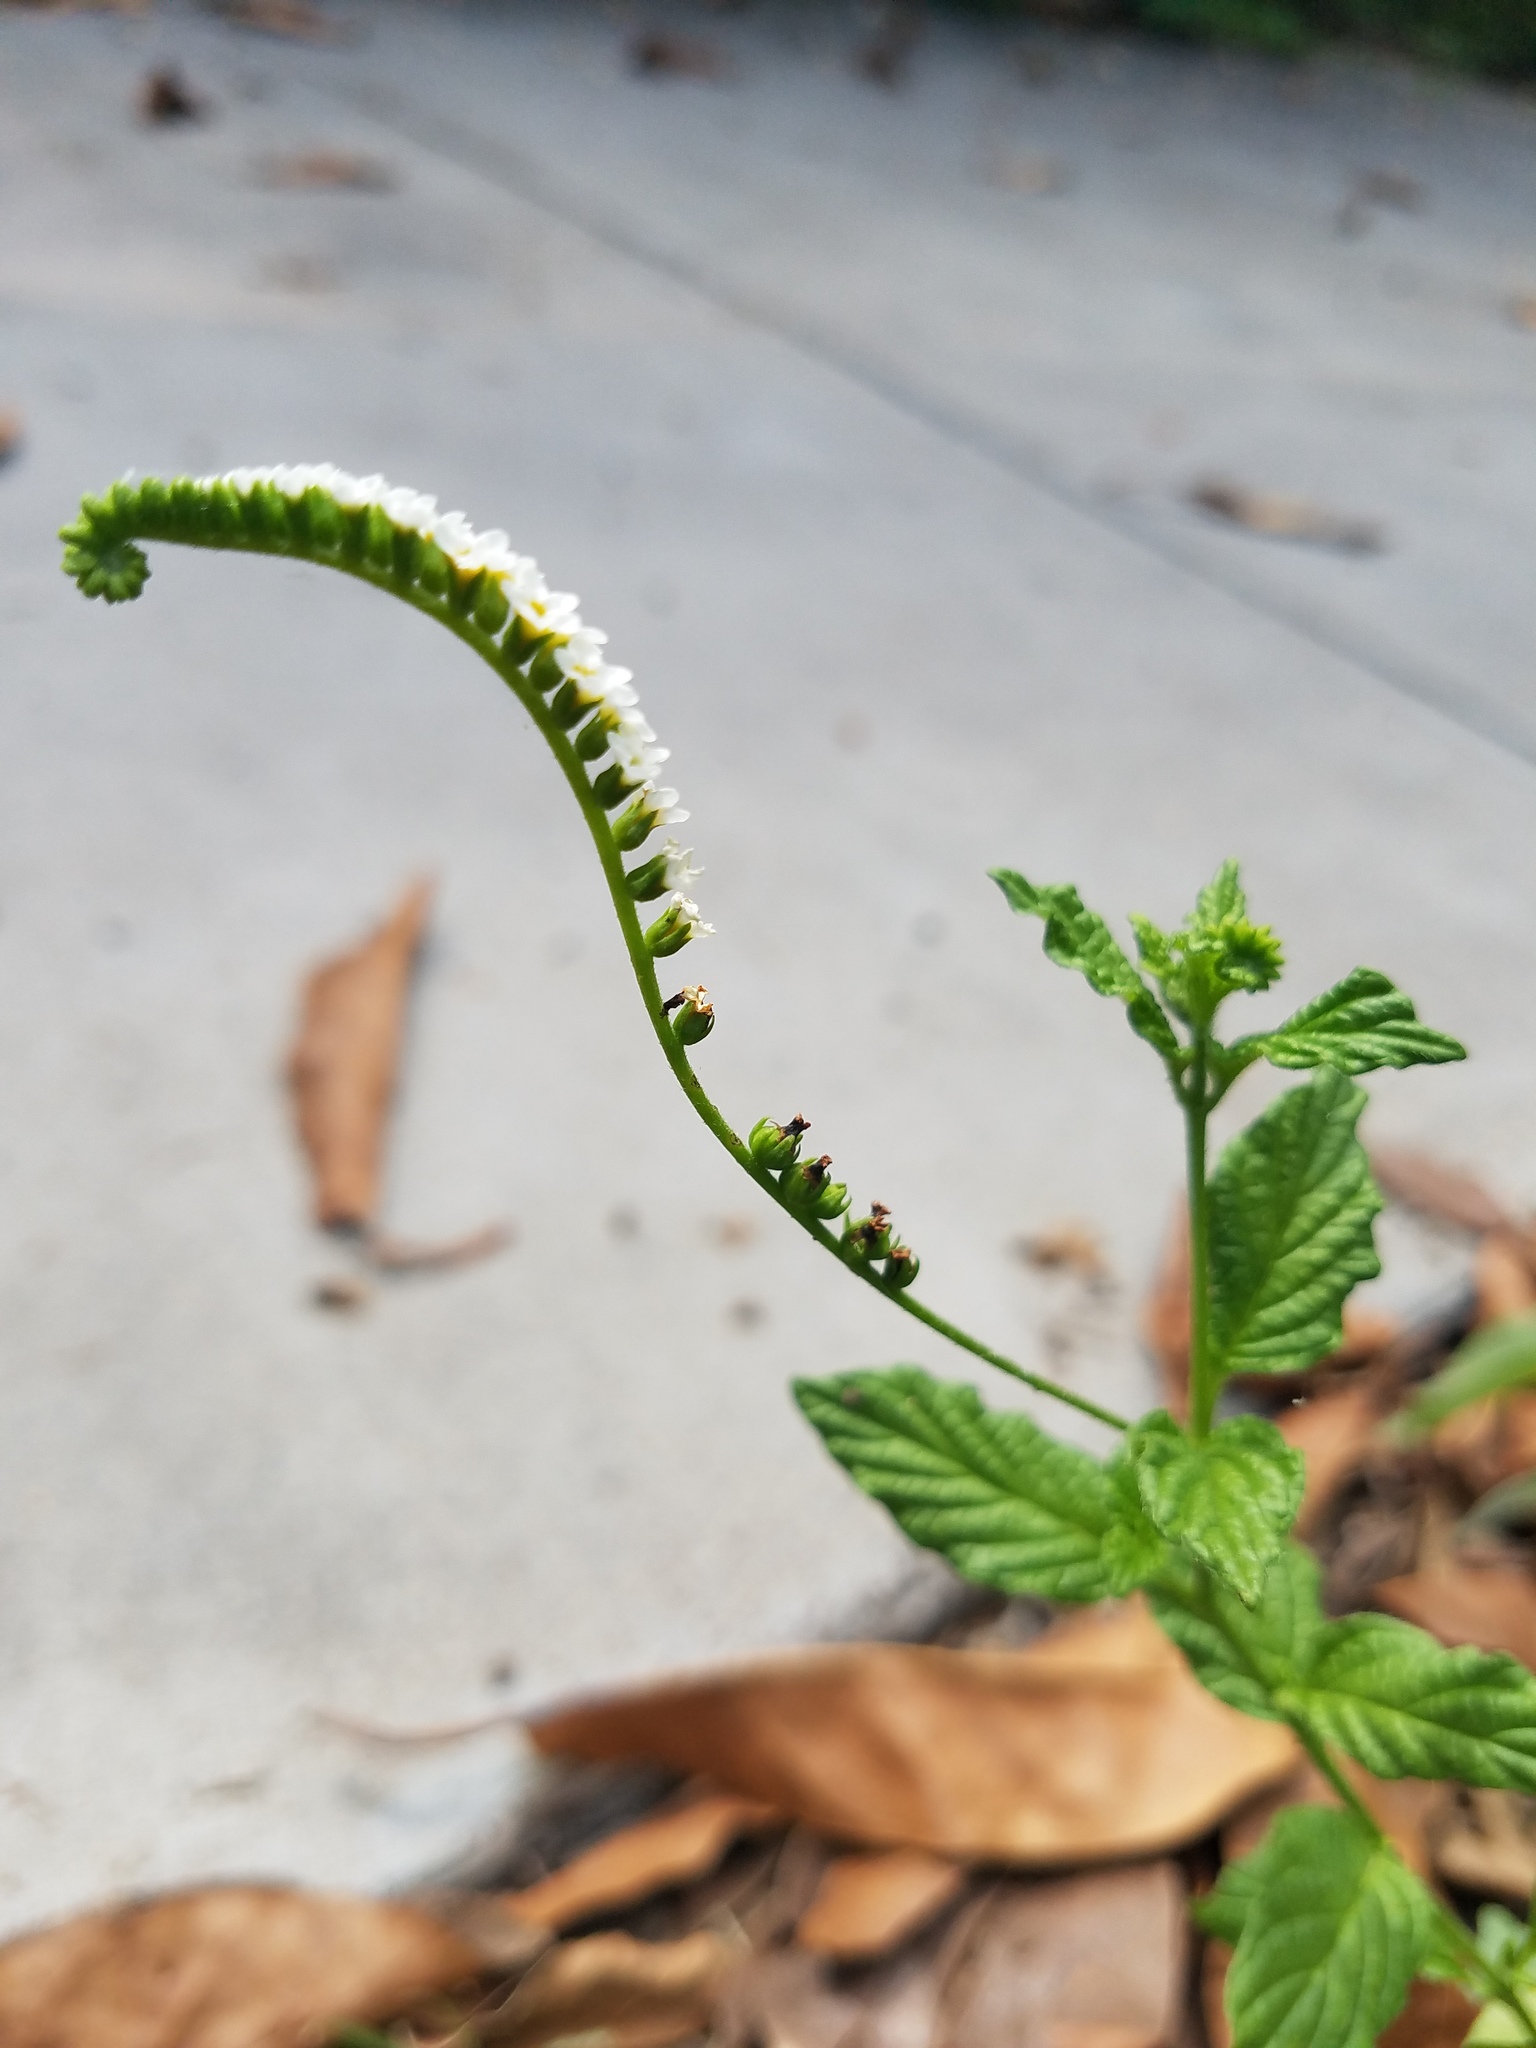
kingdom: Plantae
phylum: Tracheophyta
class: Magnoliopsida
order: Boraginales
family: Heliotropiaceae
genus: Heliotropium
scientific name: Heliotropium angiospermum
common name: Eye bright
